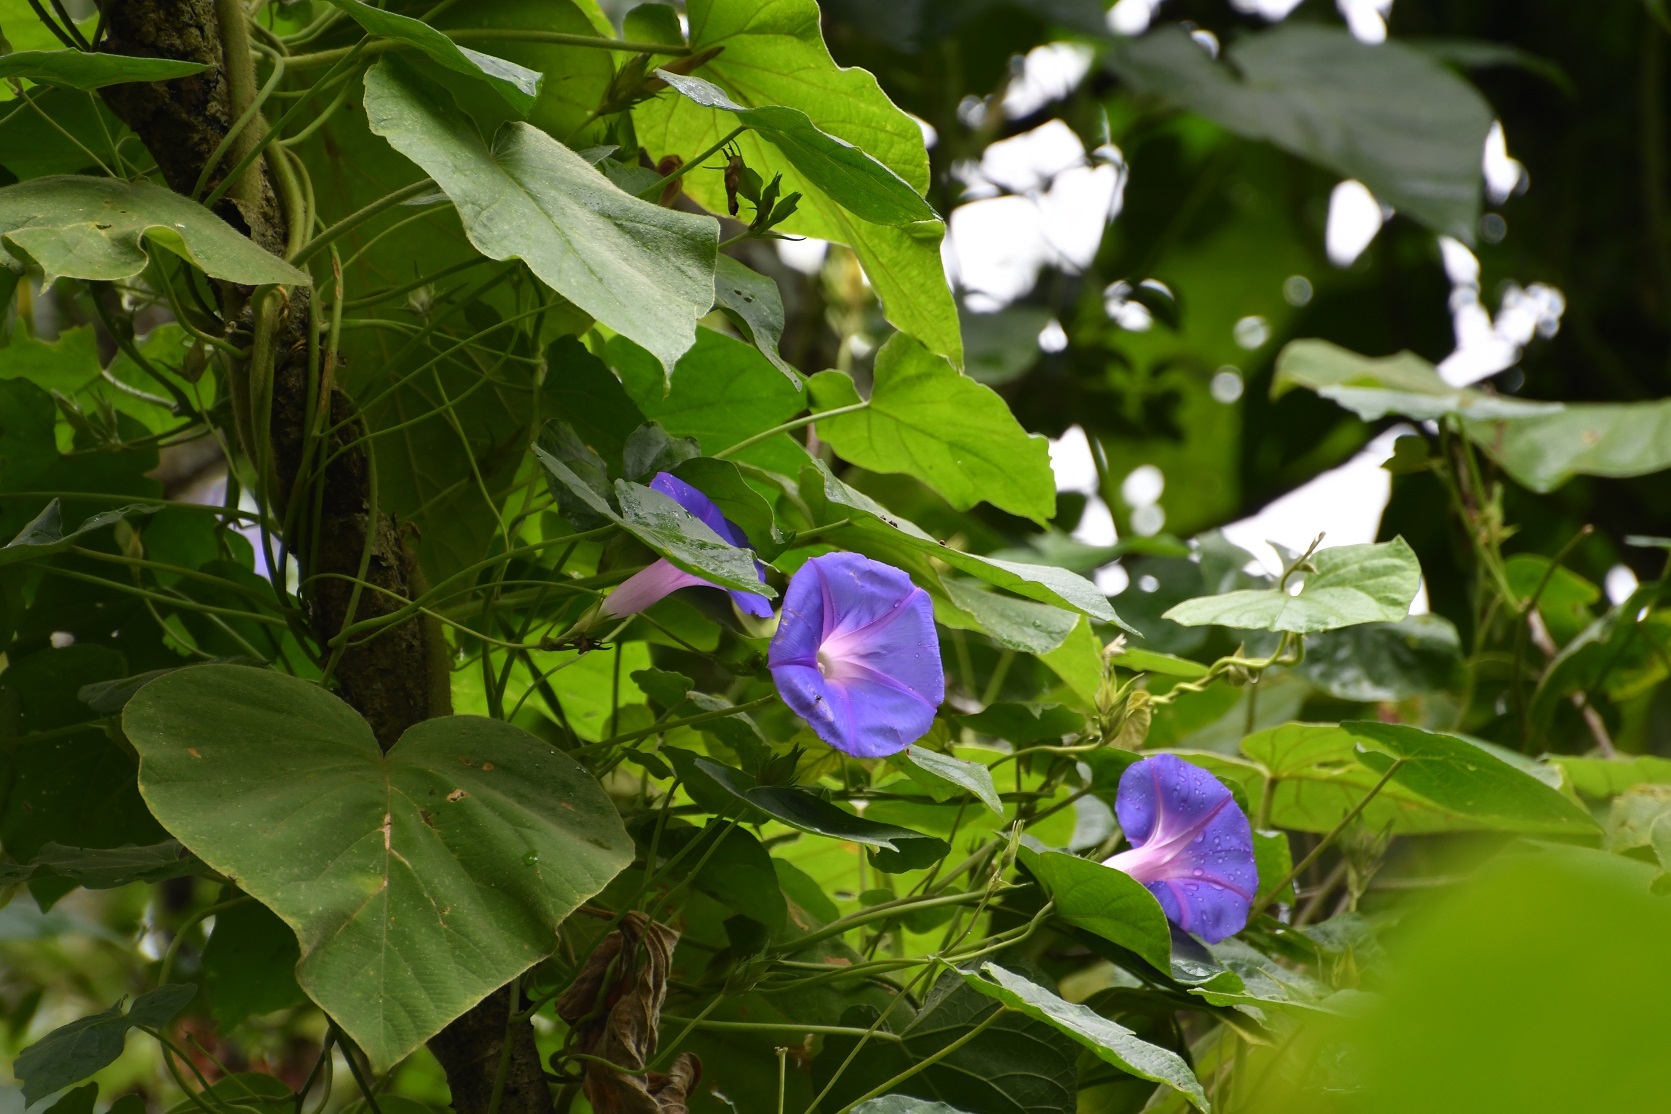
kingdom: Plantae
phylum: Tracheophyta
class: Magnoliopsida
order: Solanales
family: Convolvulaceae
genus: Ipomoea
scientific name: Ipomoea indica
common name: Blue dawnflower
